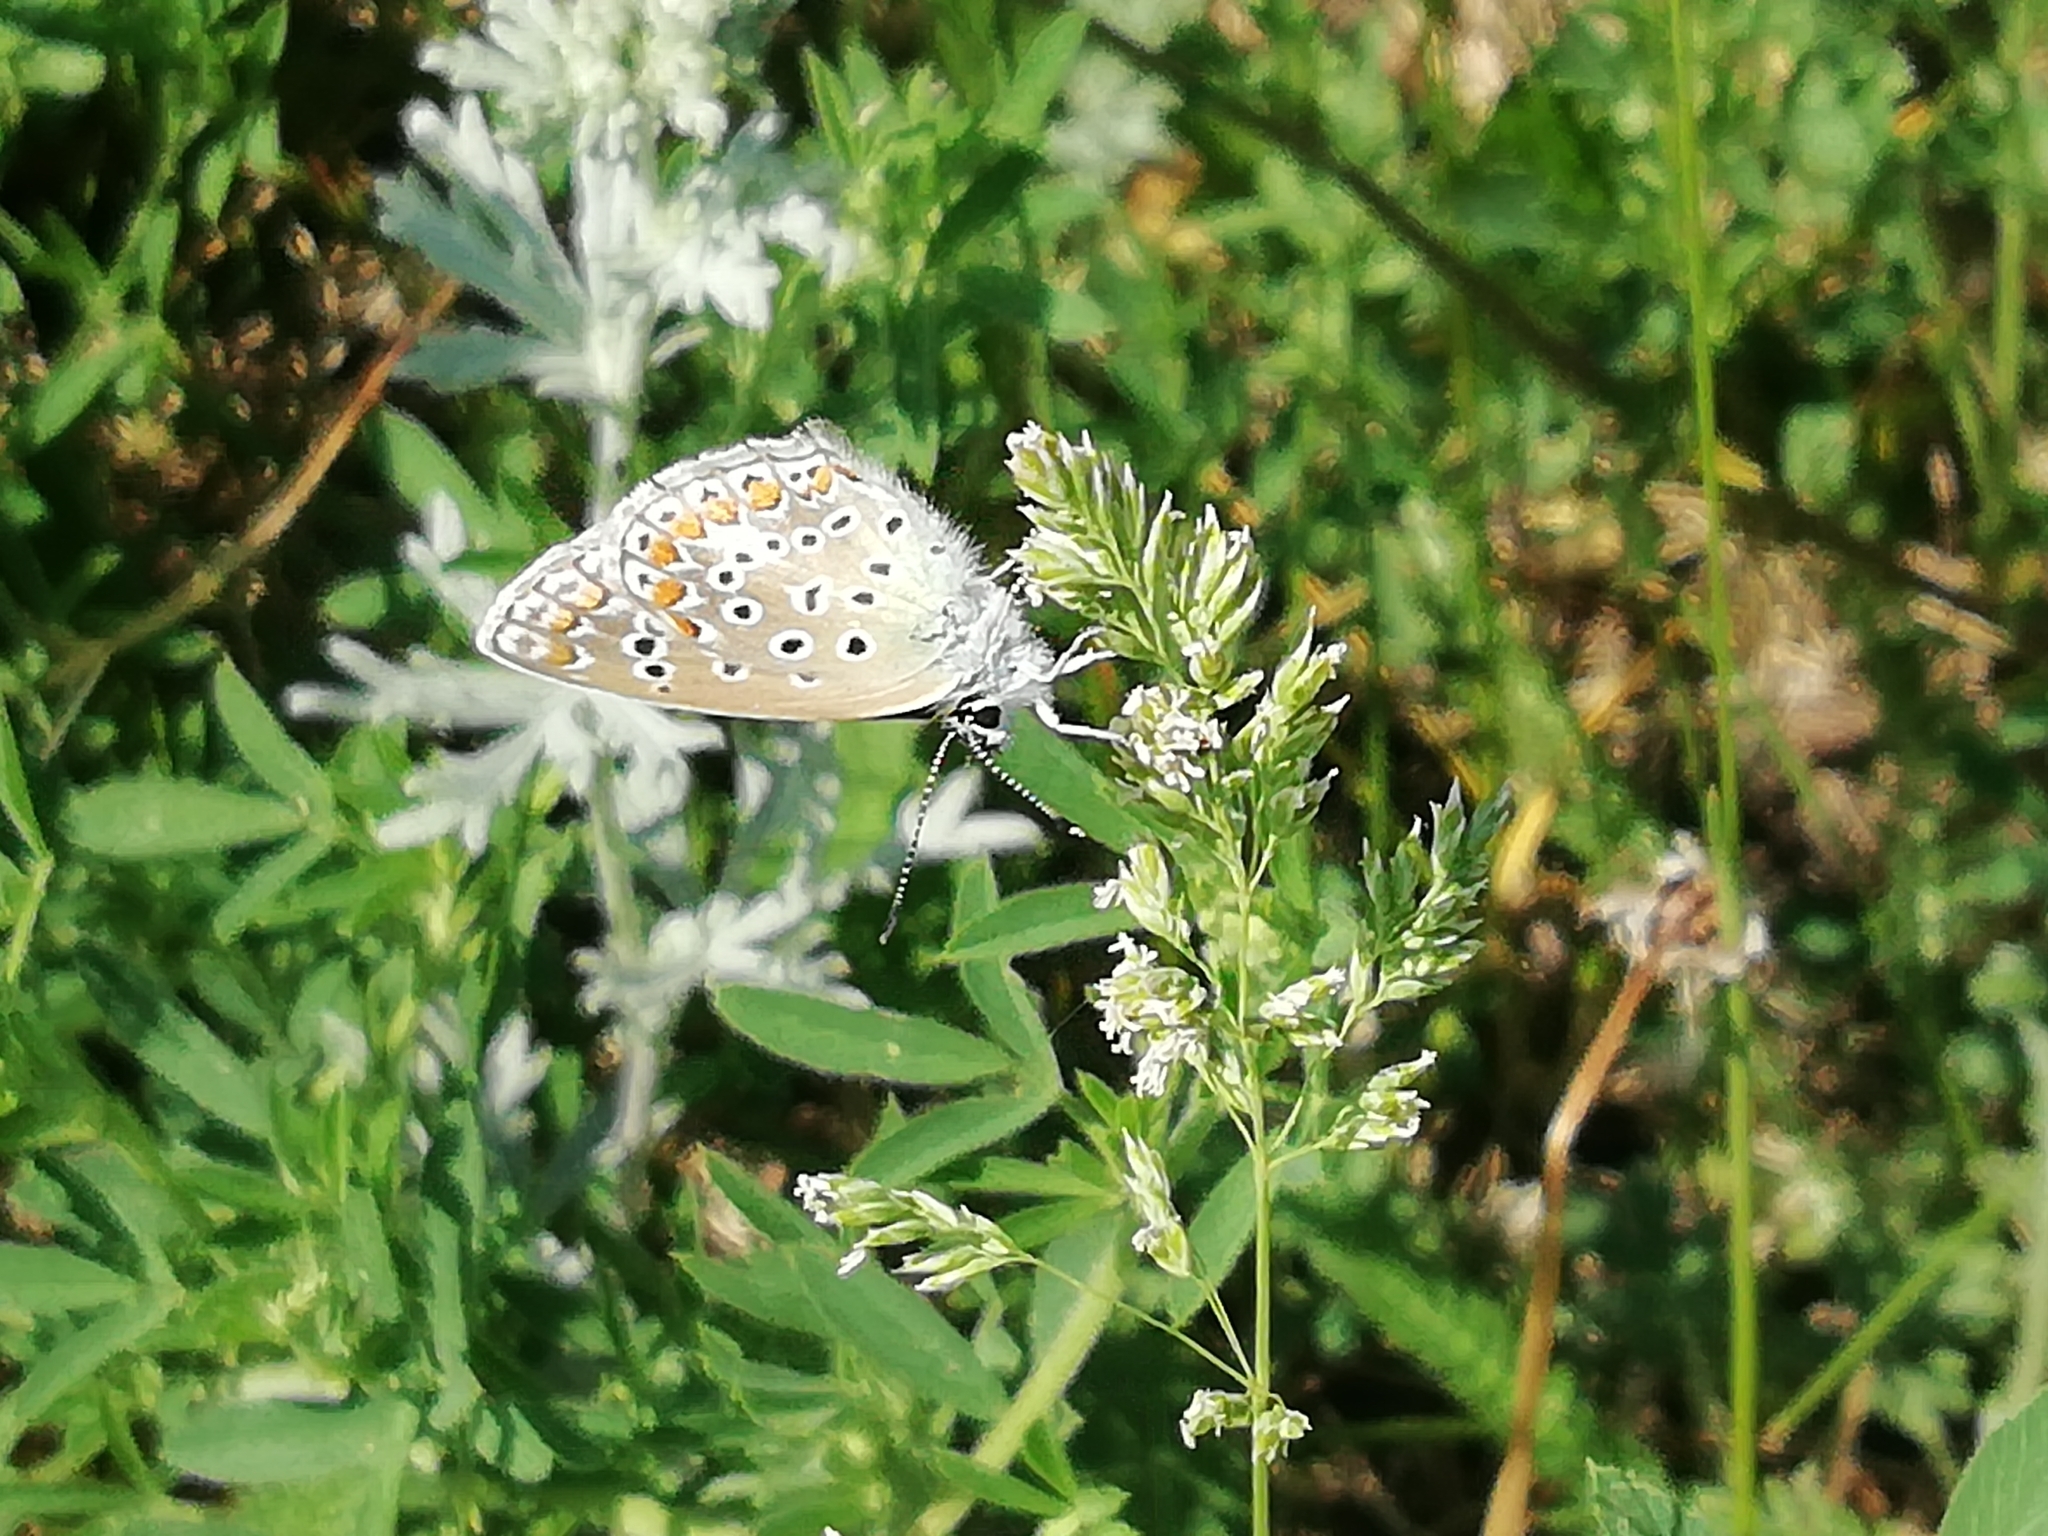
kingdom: Animalia
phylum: Arthropoda
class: Insecta
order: Lepidoptera
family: Lycaenidae
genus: Polyommatus
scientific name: Polyommatus icarus
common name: Common blue
